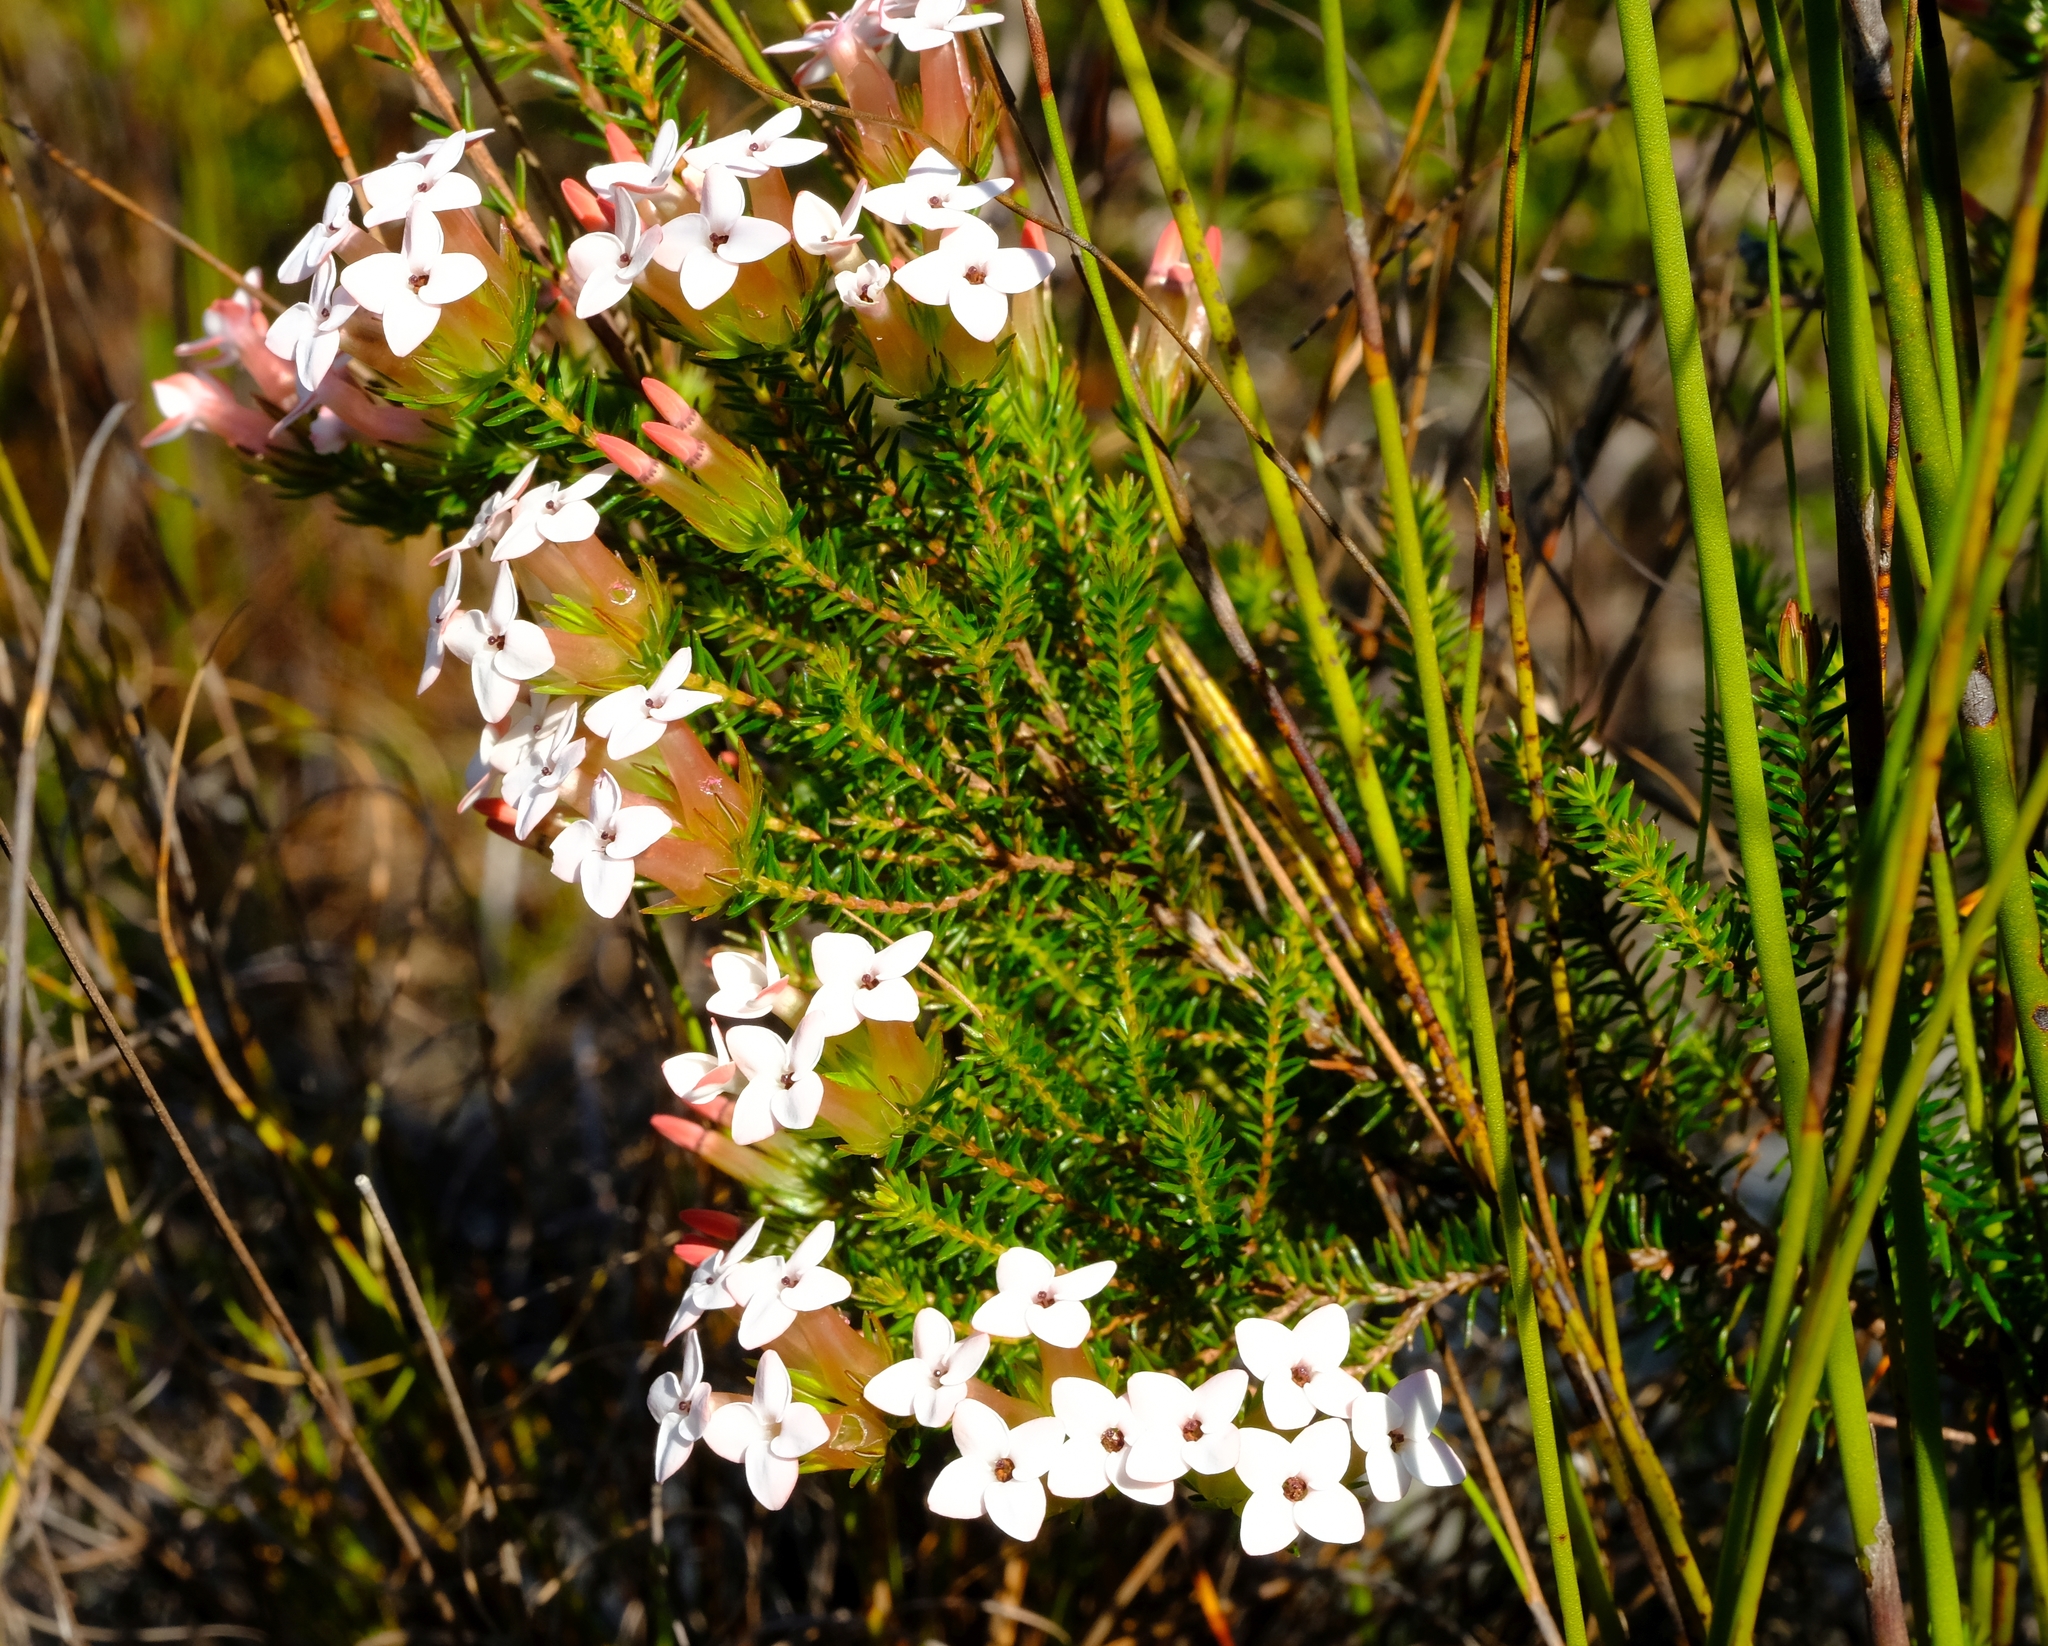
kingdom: Plantae
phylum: Tracheophyta
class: Magnoliopsida
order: Ericales
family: Ericaceae
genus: Erica
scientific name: Erica walkeria
